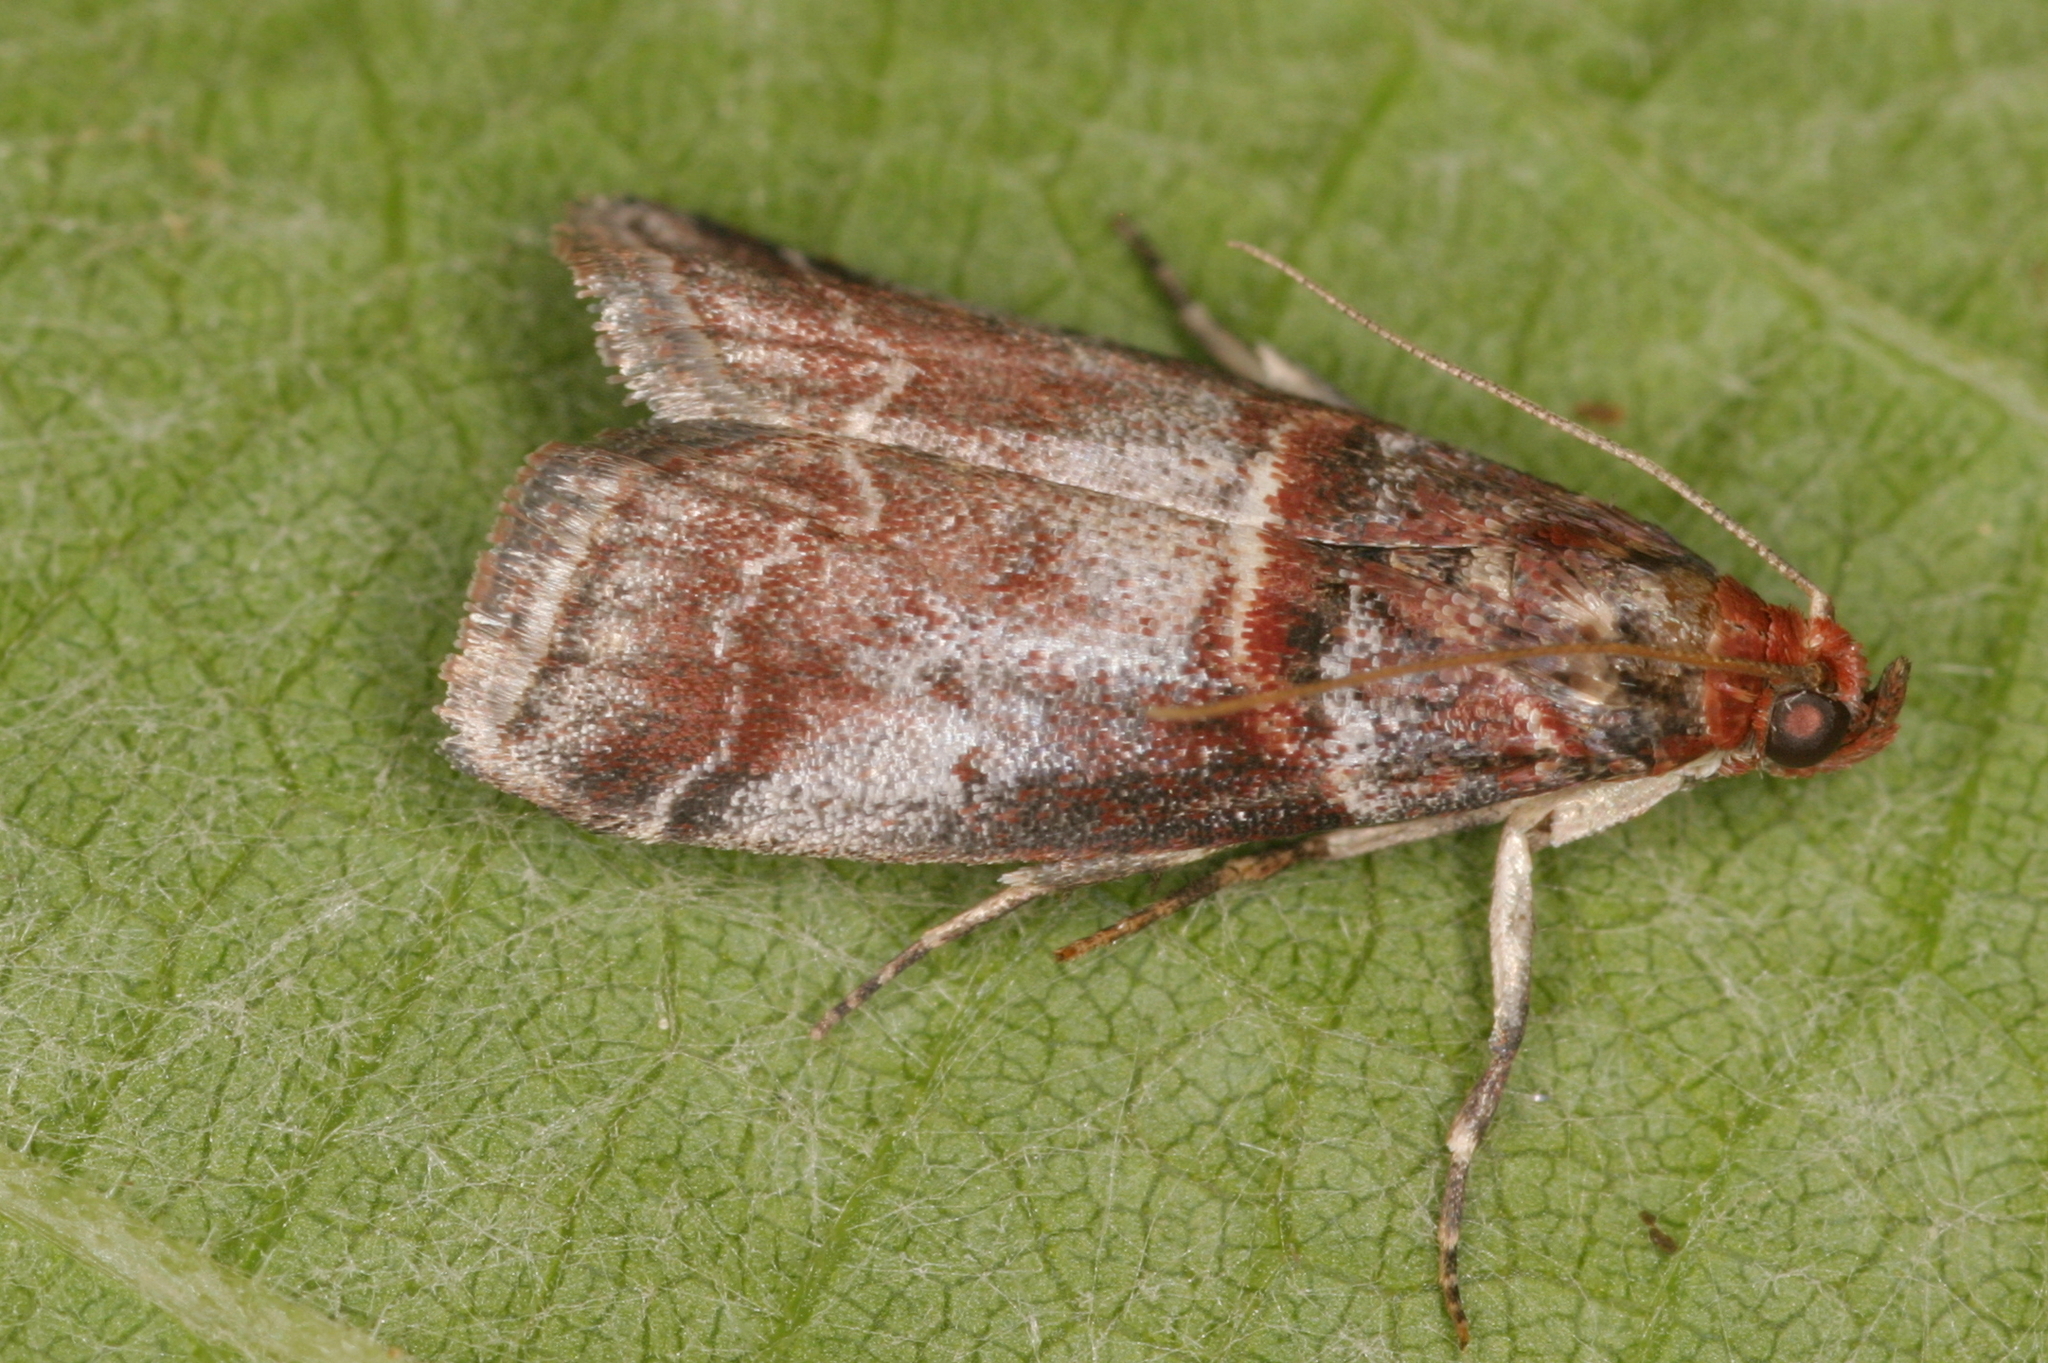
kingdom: Animalia
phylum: Arthropoda
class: Insecta
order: Lepidoptera
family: Pyralidae
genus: Acrobasis
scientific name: Acrobasis advenella
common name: Grey knot-horn
